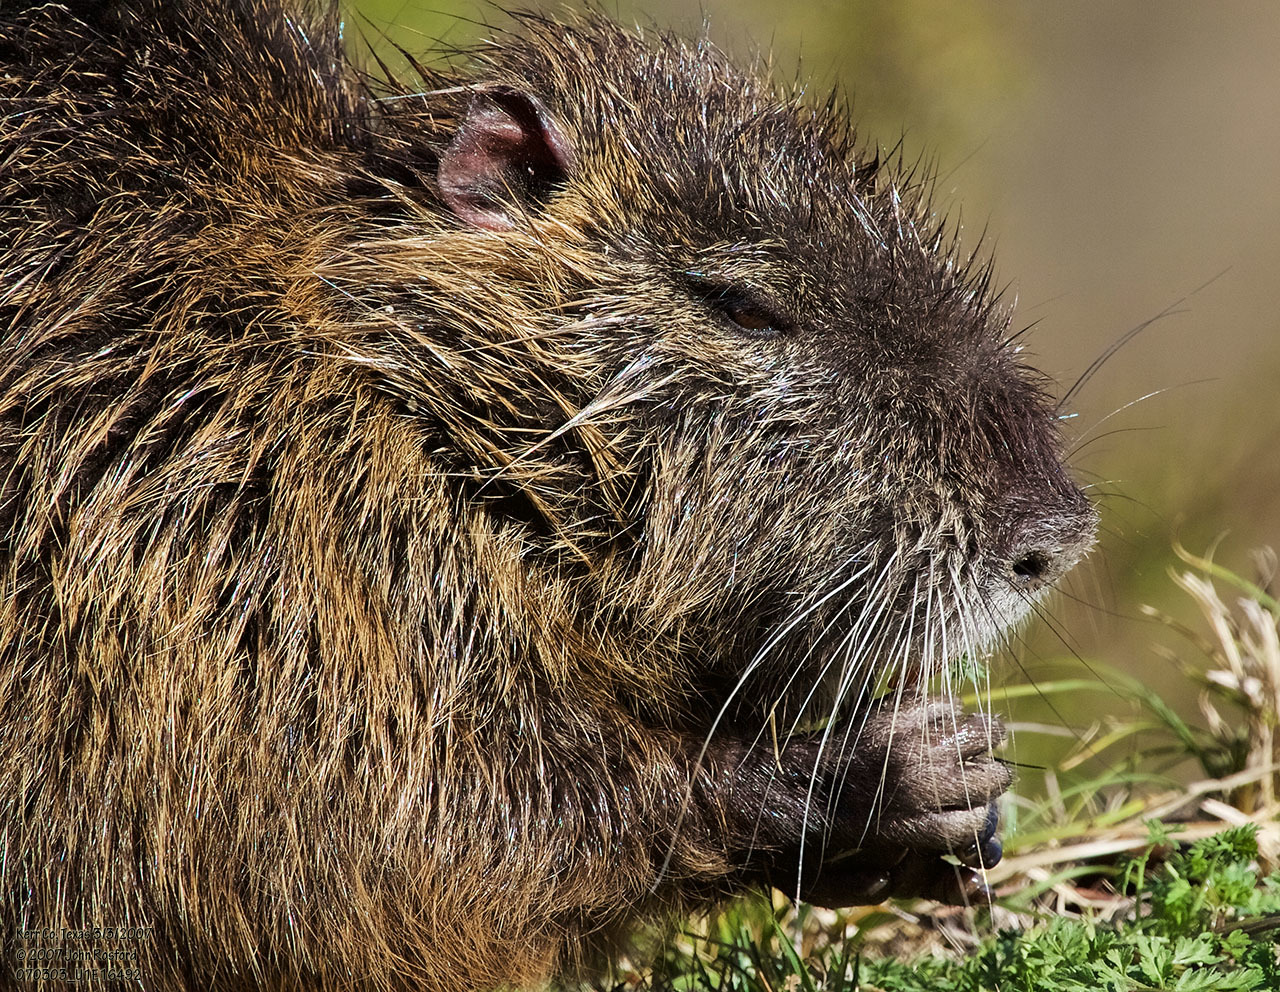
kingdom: Animalia
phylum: Chordata
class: Mammalia
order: Rodentia
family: Myocastoridae
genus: Myocastor
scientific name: Myocastor coypus
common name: Coypu
